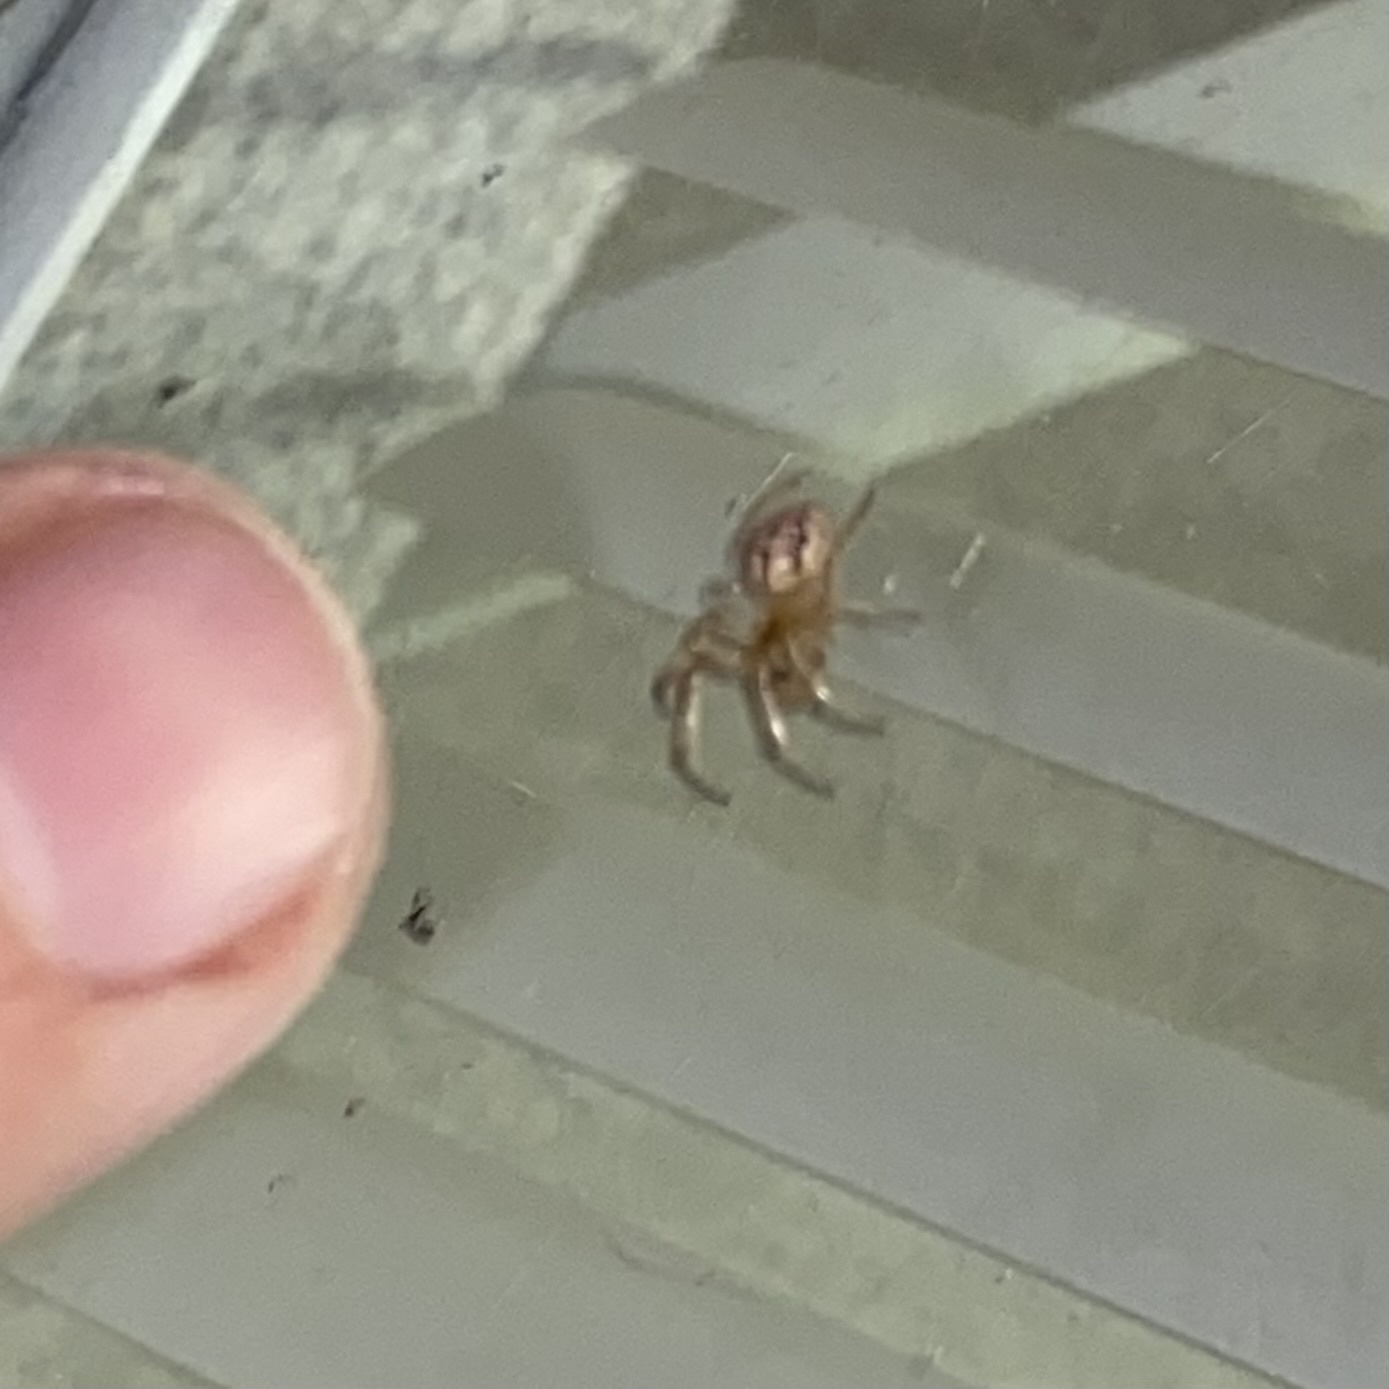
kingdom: Animalia
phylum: Arthropoda
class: Arachnida
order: Araneae
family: Theridiidae
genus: Latrodectus
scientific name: Latrodectus geometricus
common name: Brown widow spider
